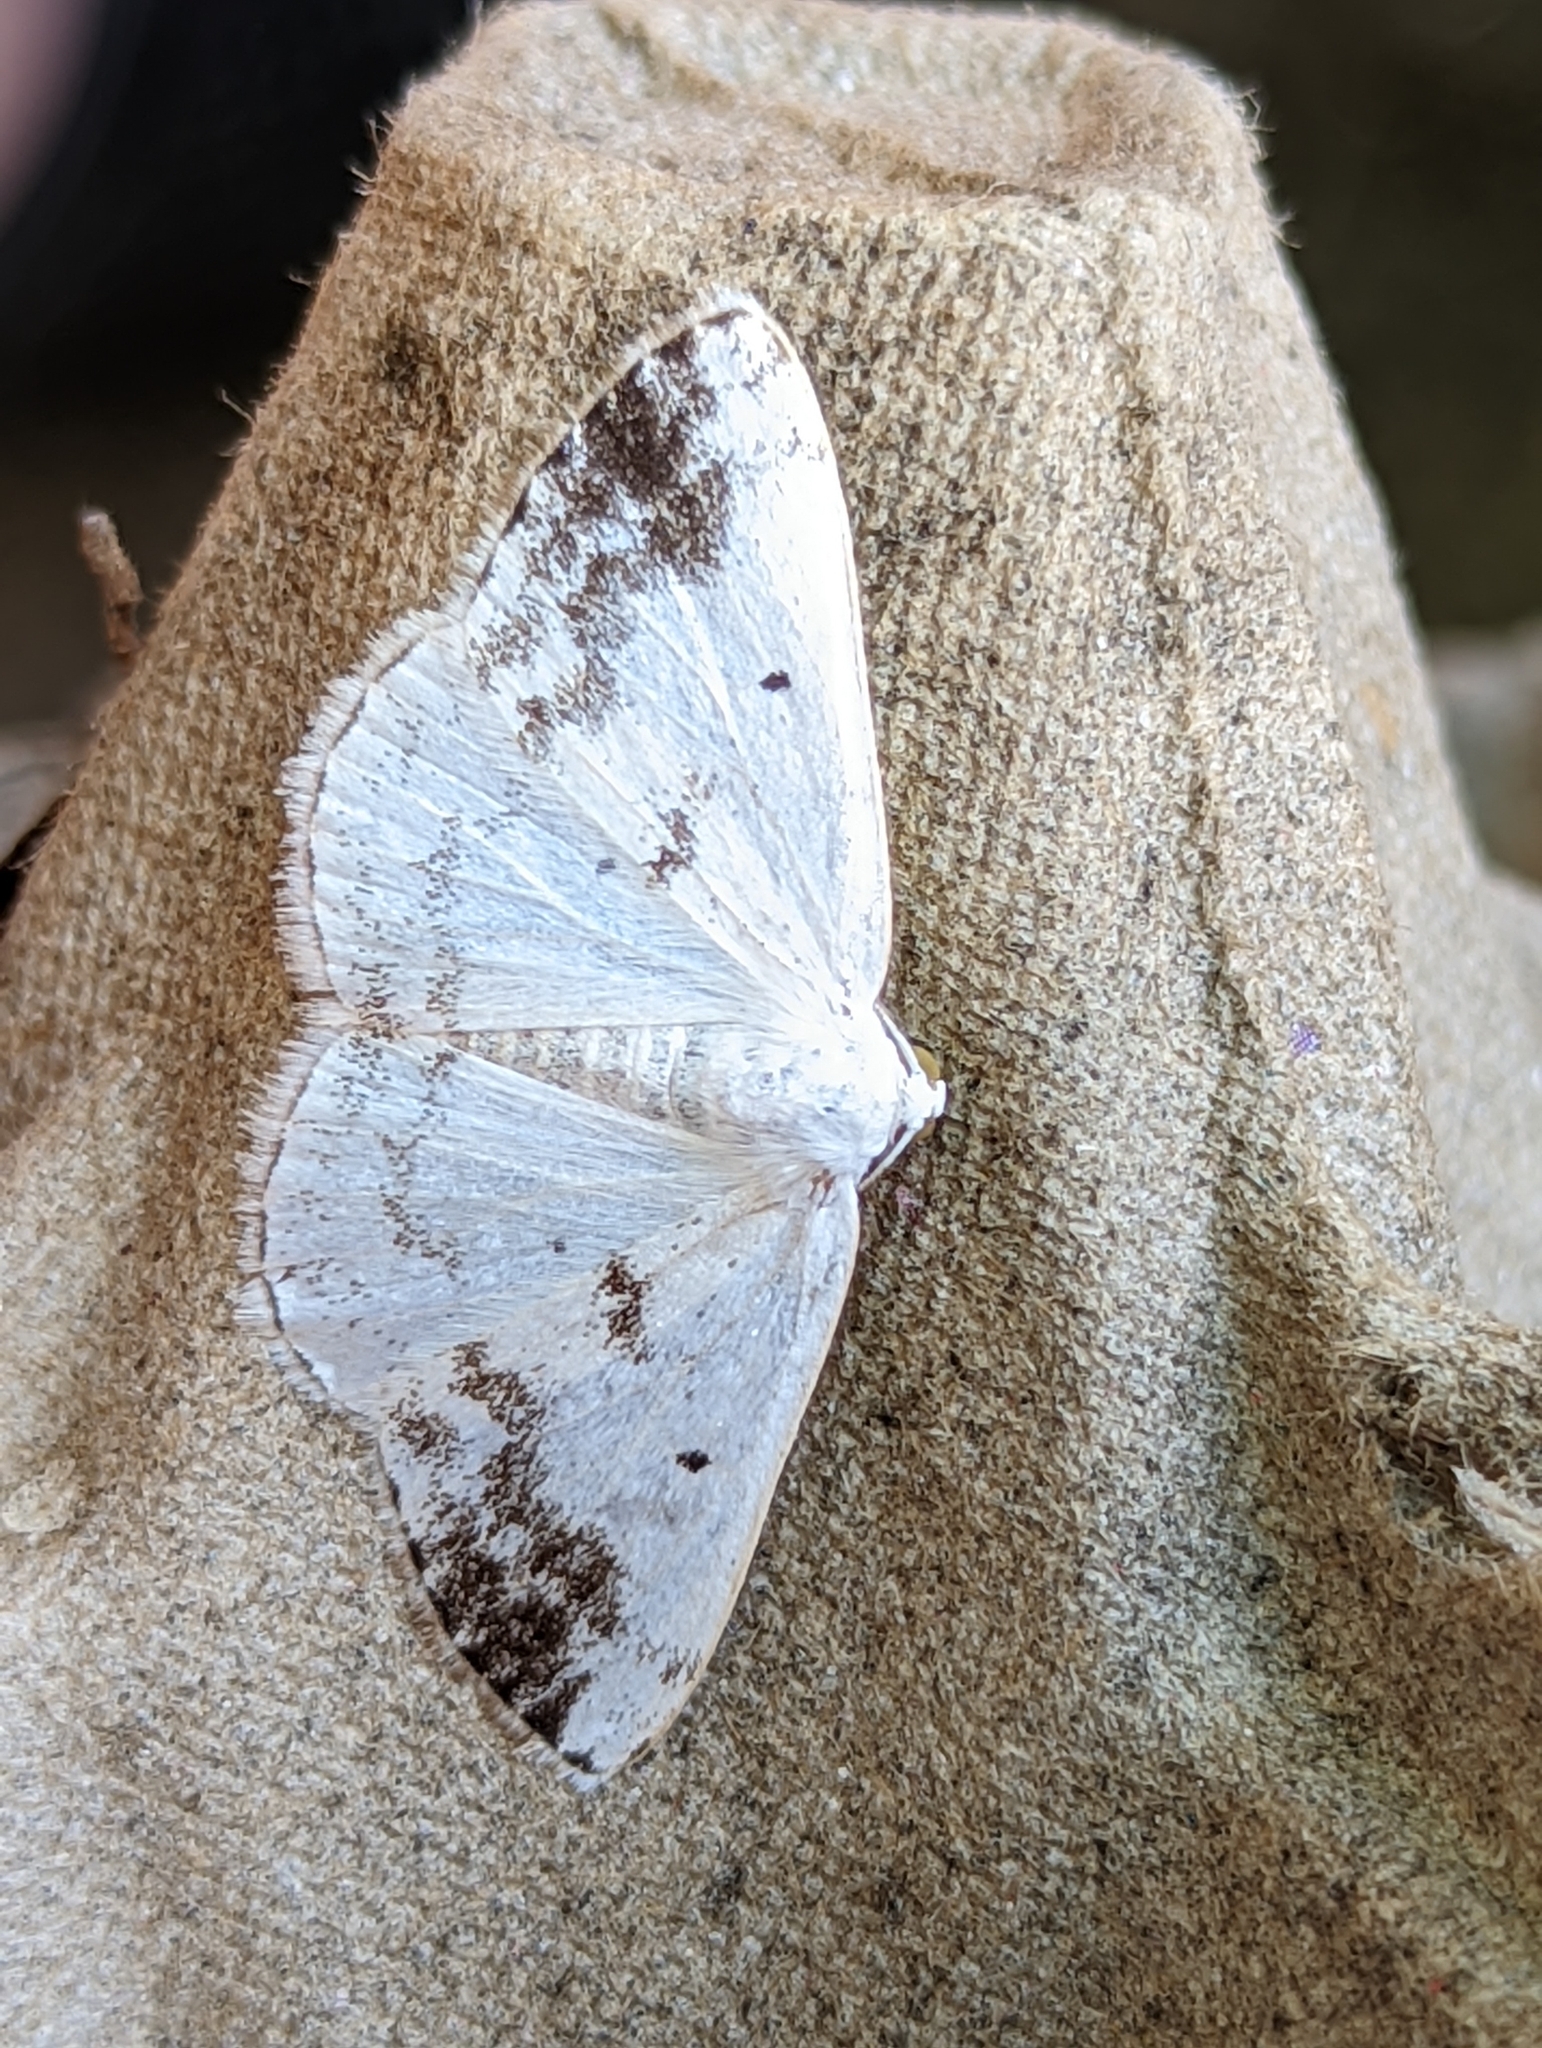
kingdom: Animalia
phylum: Arthropoda
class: Insecta
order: Lepidoptera
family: Geometridae
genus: Lomographa
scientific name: Lomographa temerata
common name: Clouded silver
